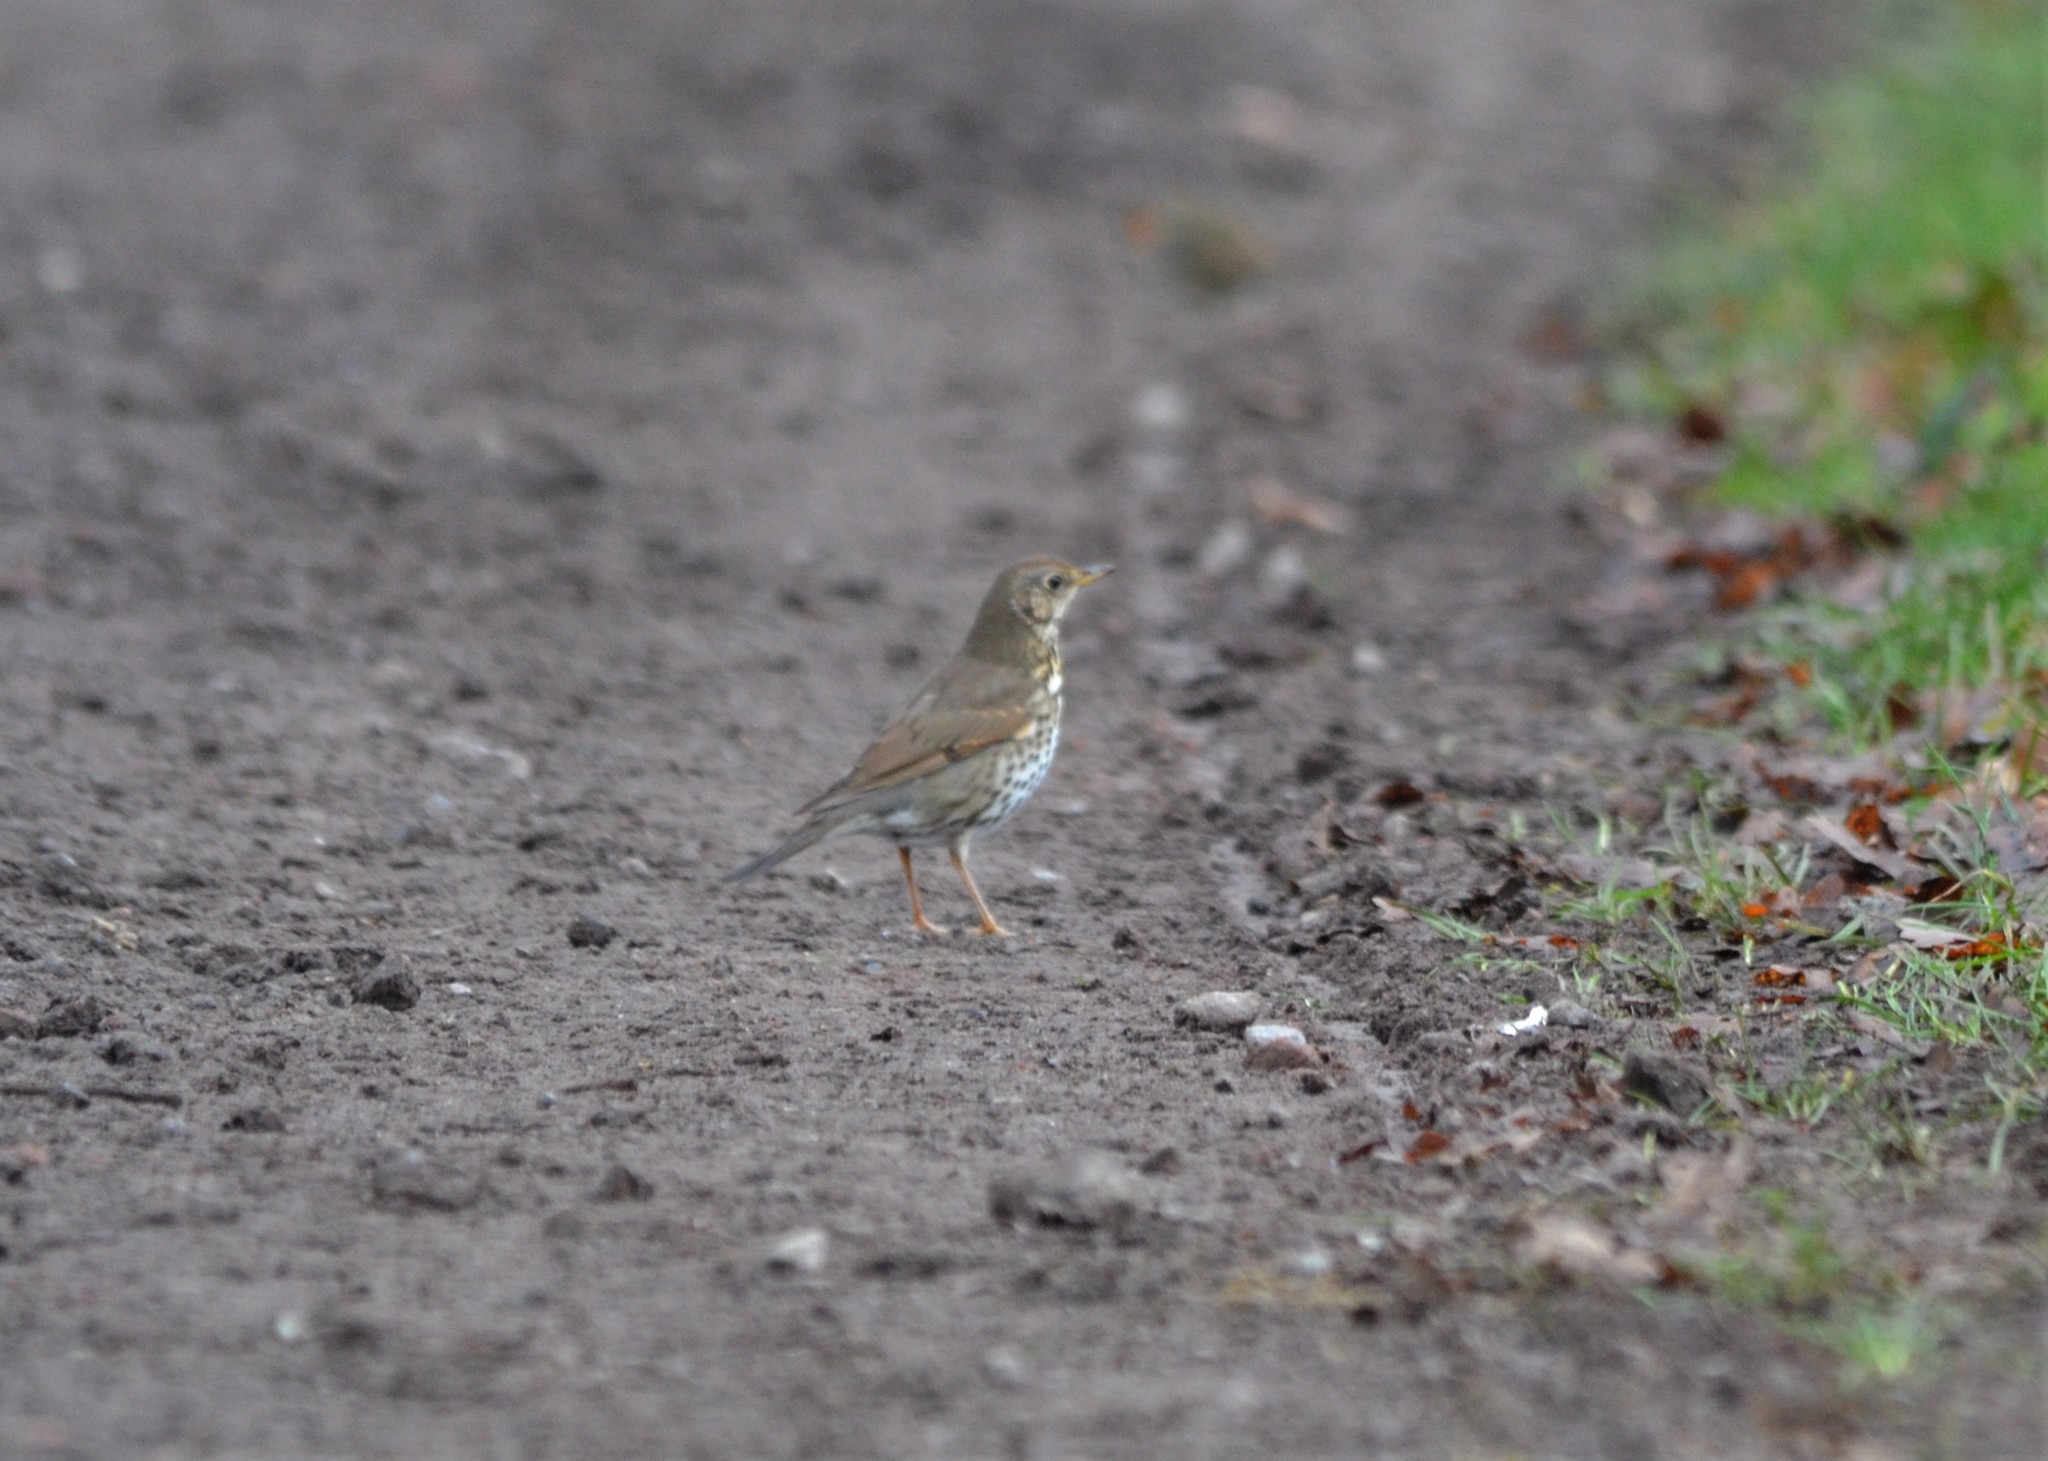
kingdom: Animalia
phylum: Chordata
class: Aves
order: Passeriformes
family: Turdidae
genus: Turdus
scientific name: Turdus philomelos
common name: Song thrush
